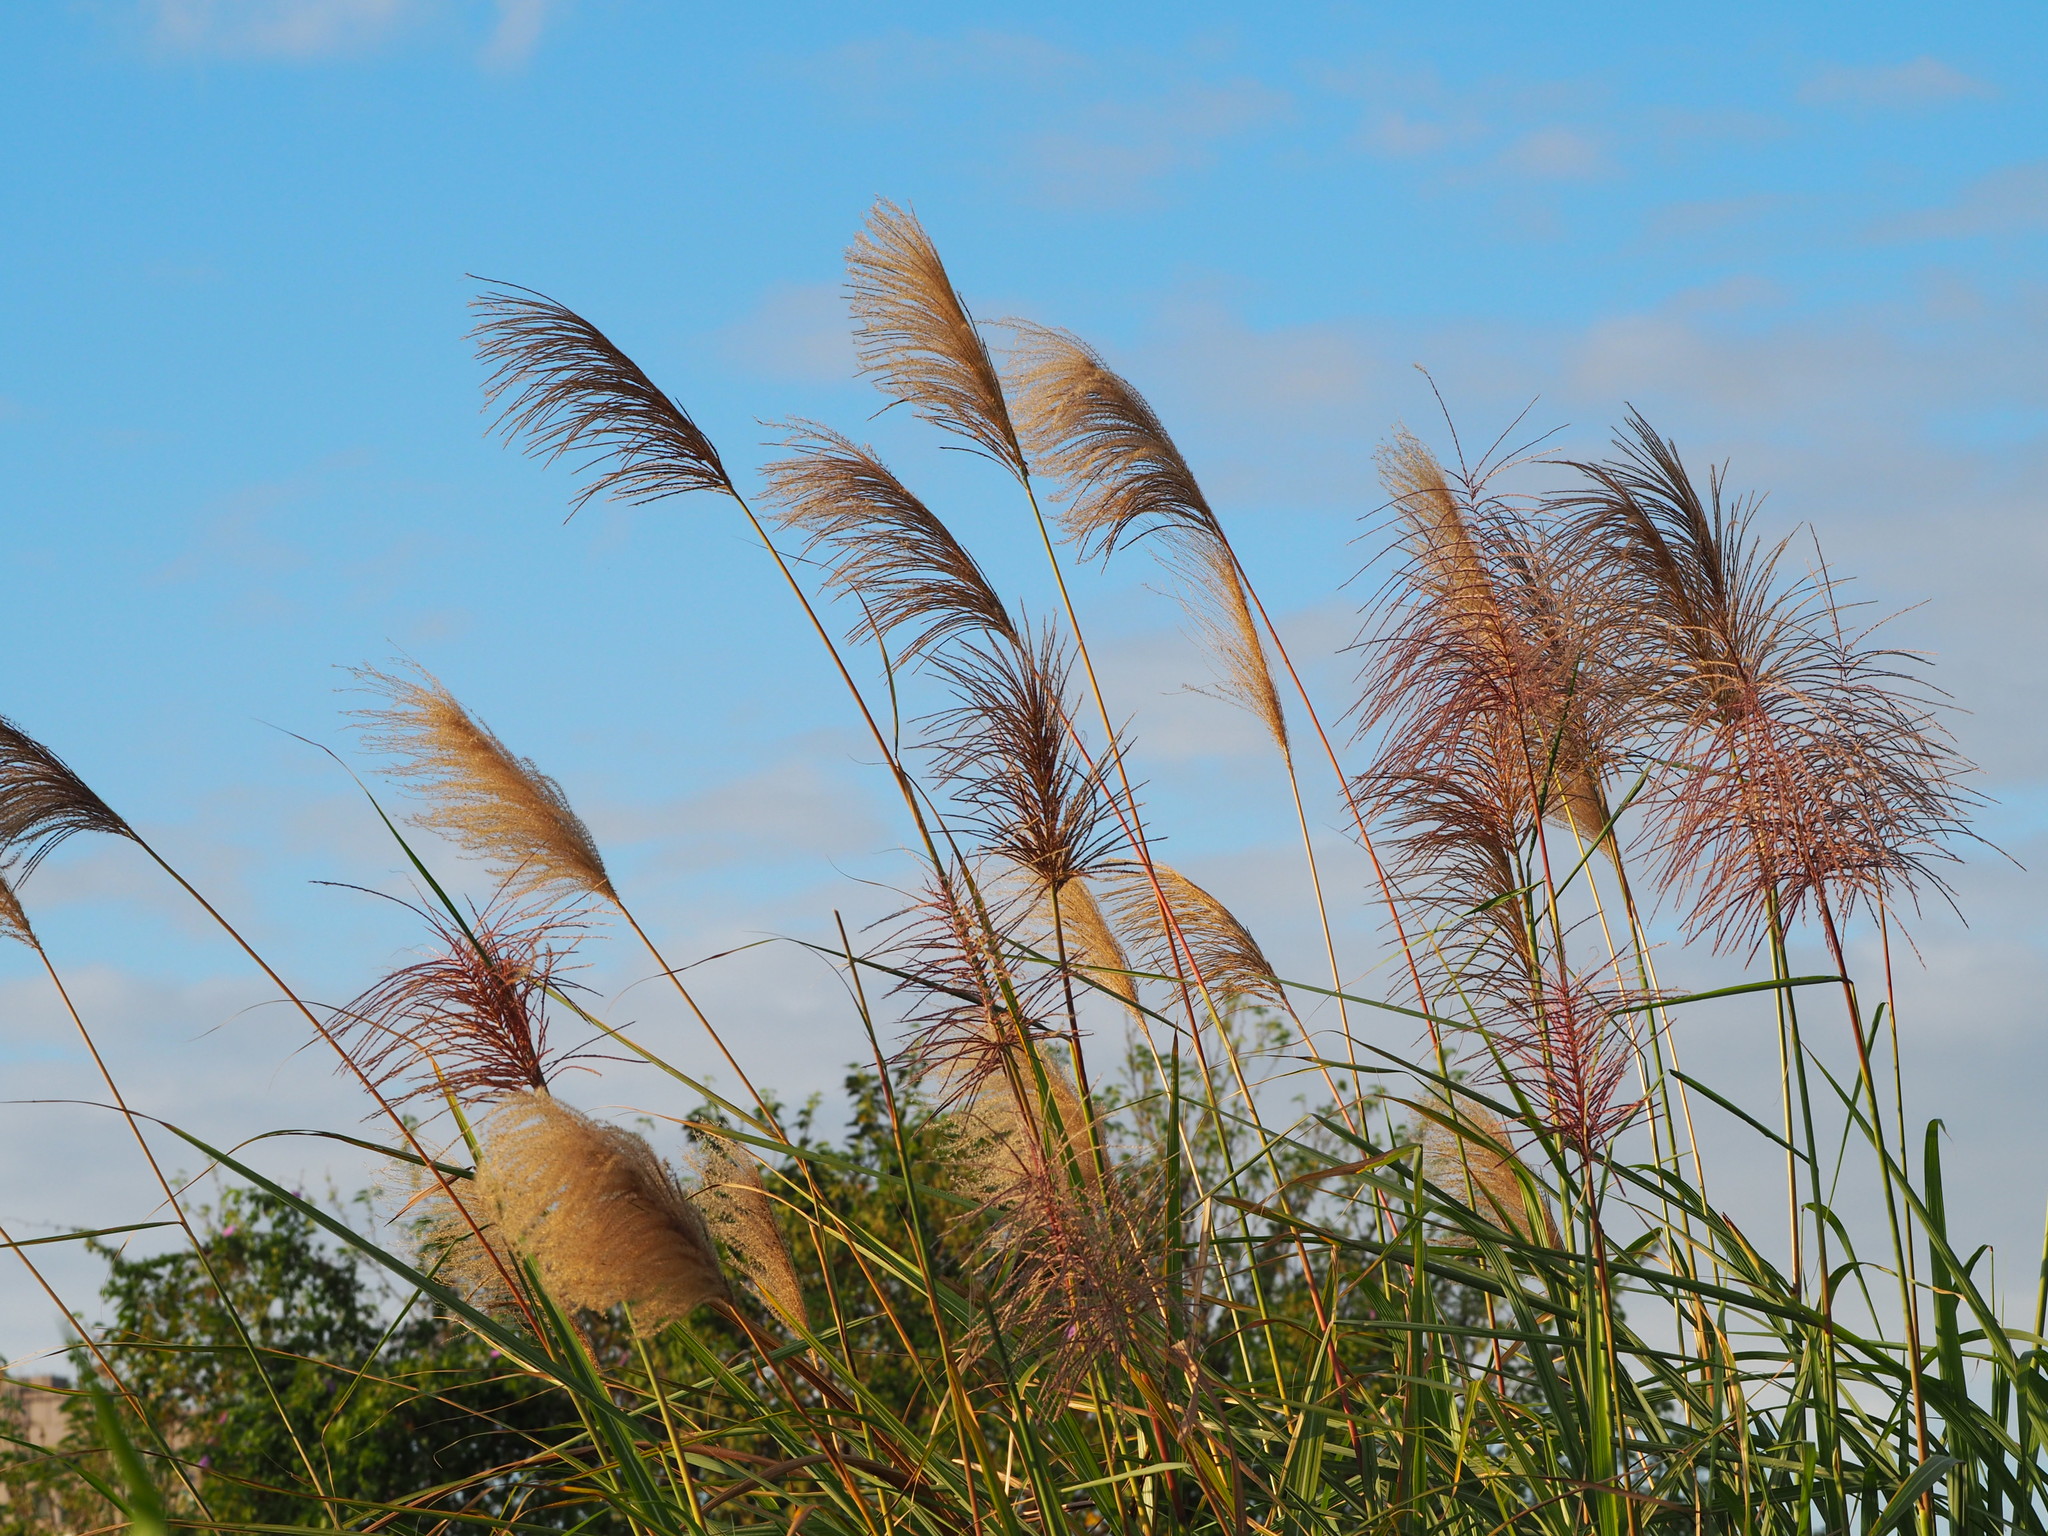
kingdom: Plantae
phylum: Tracheophyta
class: Liliopsida
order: Poales
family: Poaceae
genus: Miscanthus
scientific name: Miscanthus sinensis
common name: Chinese silvergrass
